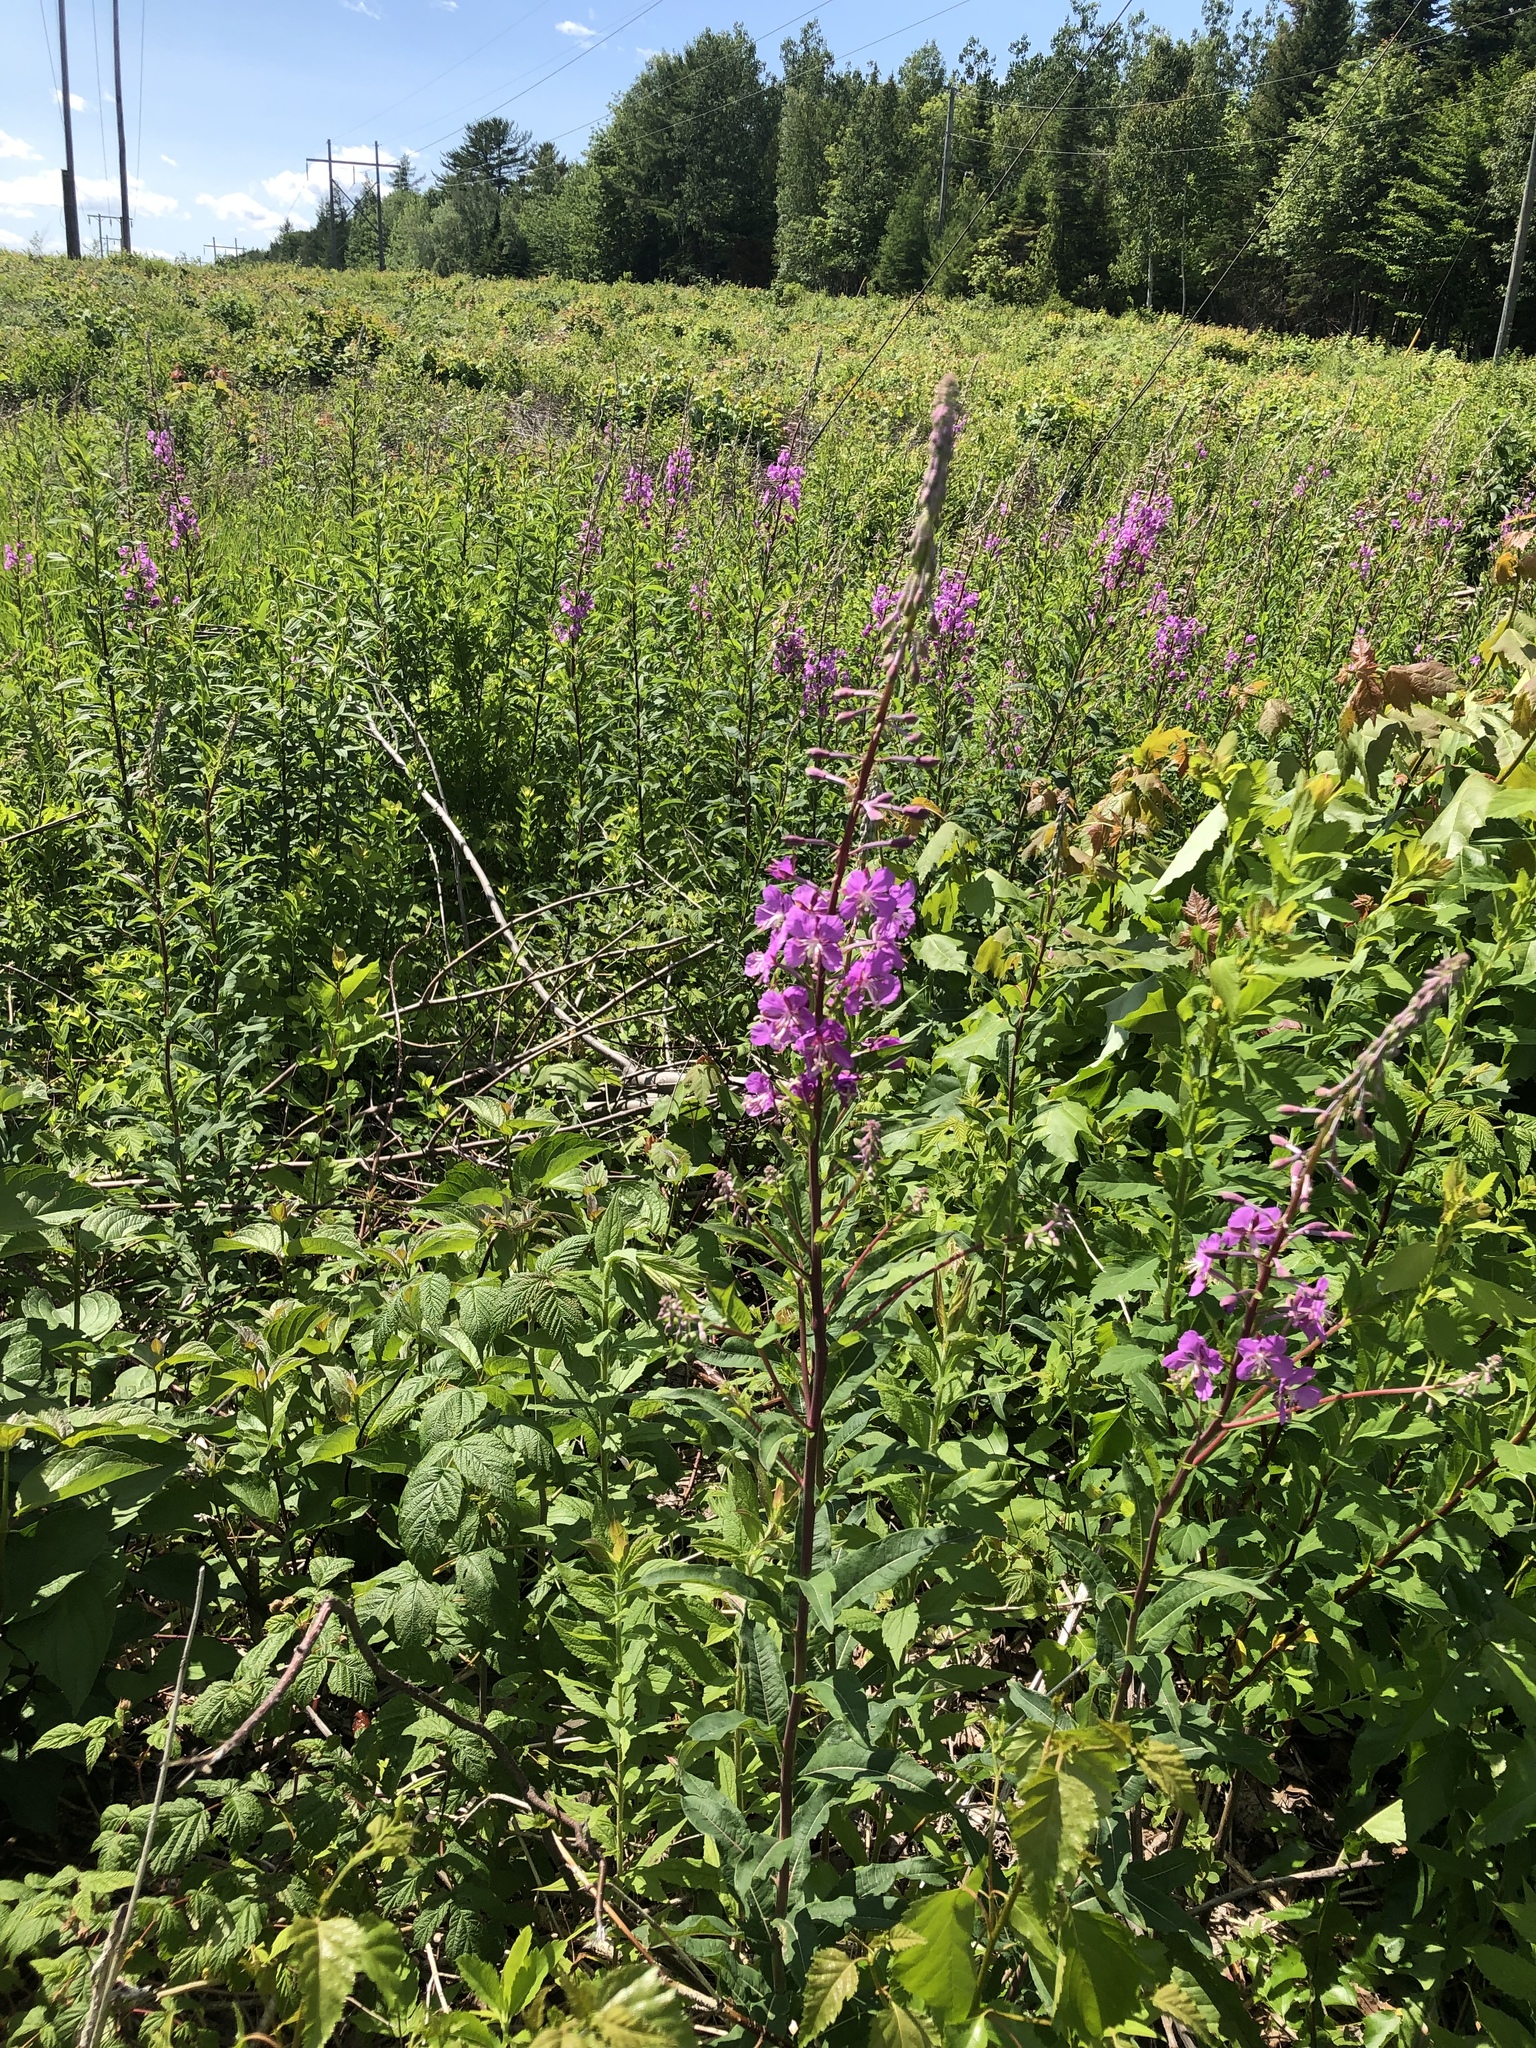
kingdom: Plantae
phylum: Tracheophyta
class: Magnoliopsida
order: Myrtales
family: Onagraceae
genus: Chamaenerion
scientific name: Chamaenerion angustifolium
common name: Fireweed
